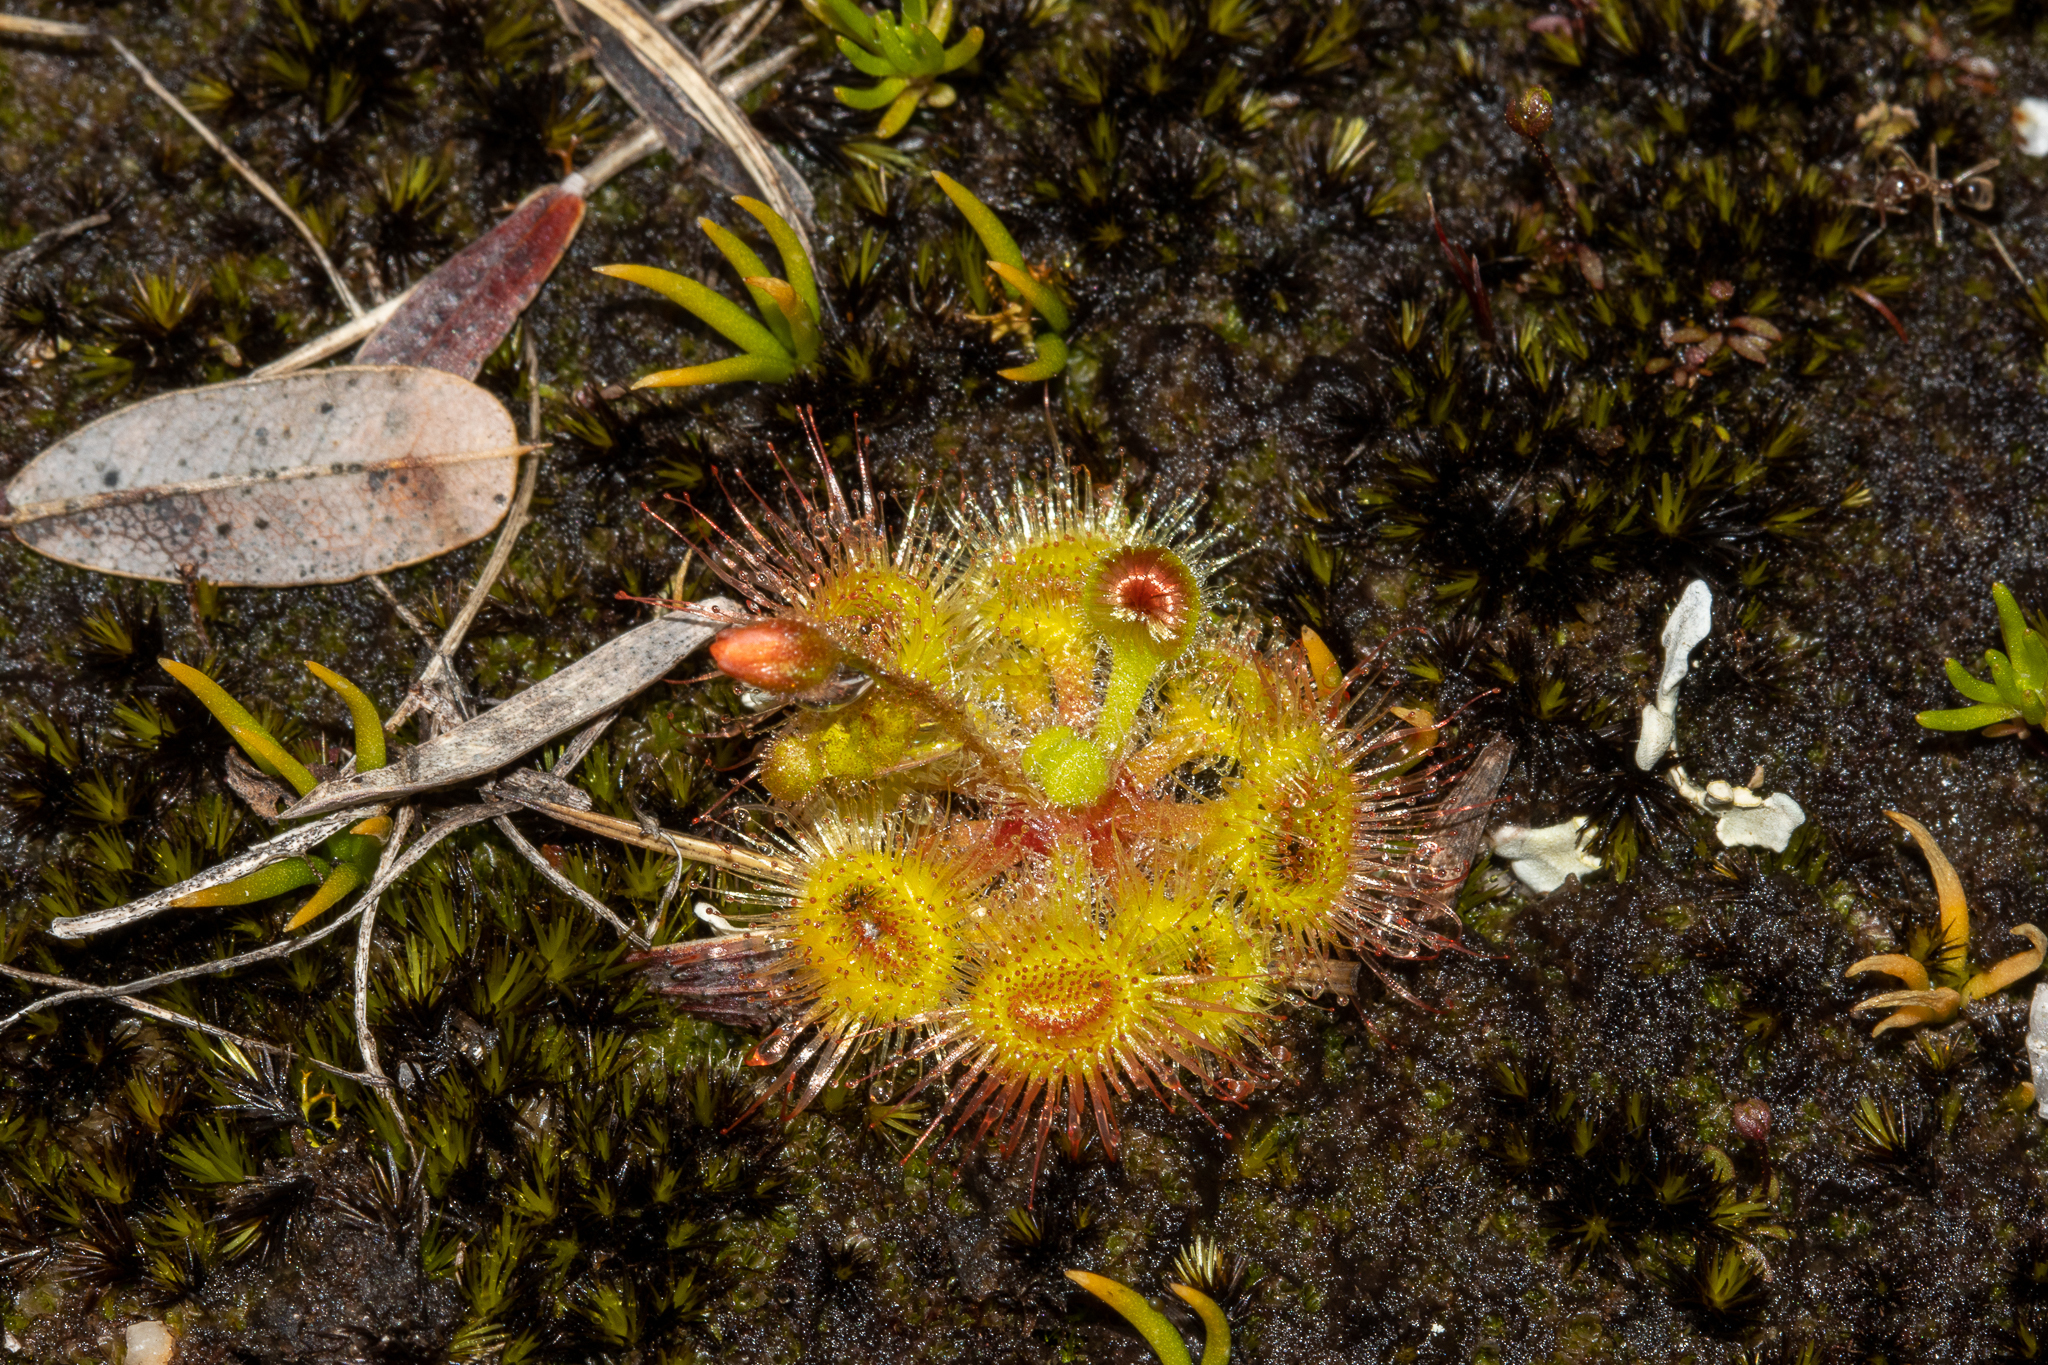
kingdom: Plantae
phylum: Tracheophyta
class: Magnoliopsida
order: Caryophyllales
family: Droseraceae
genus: Drosera
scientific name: Drosera glanduligera
